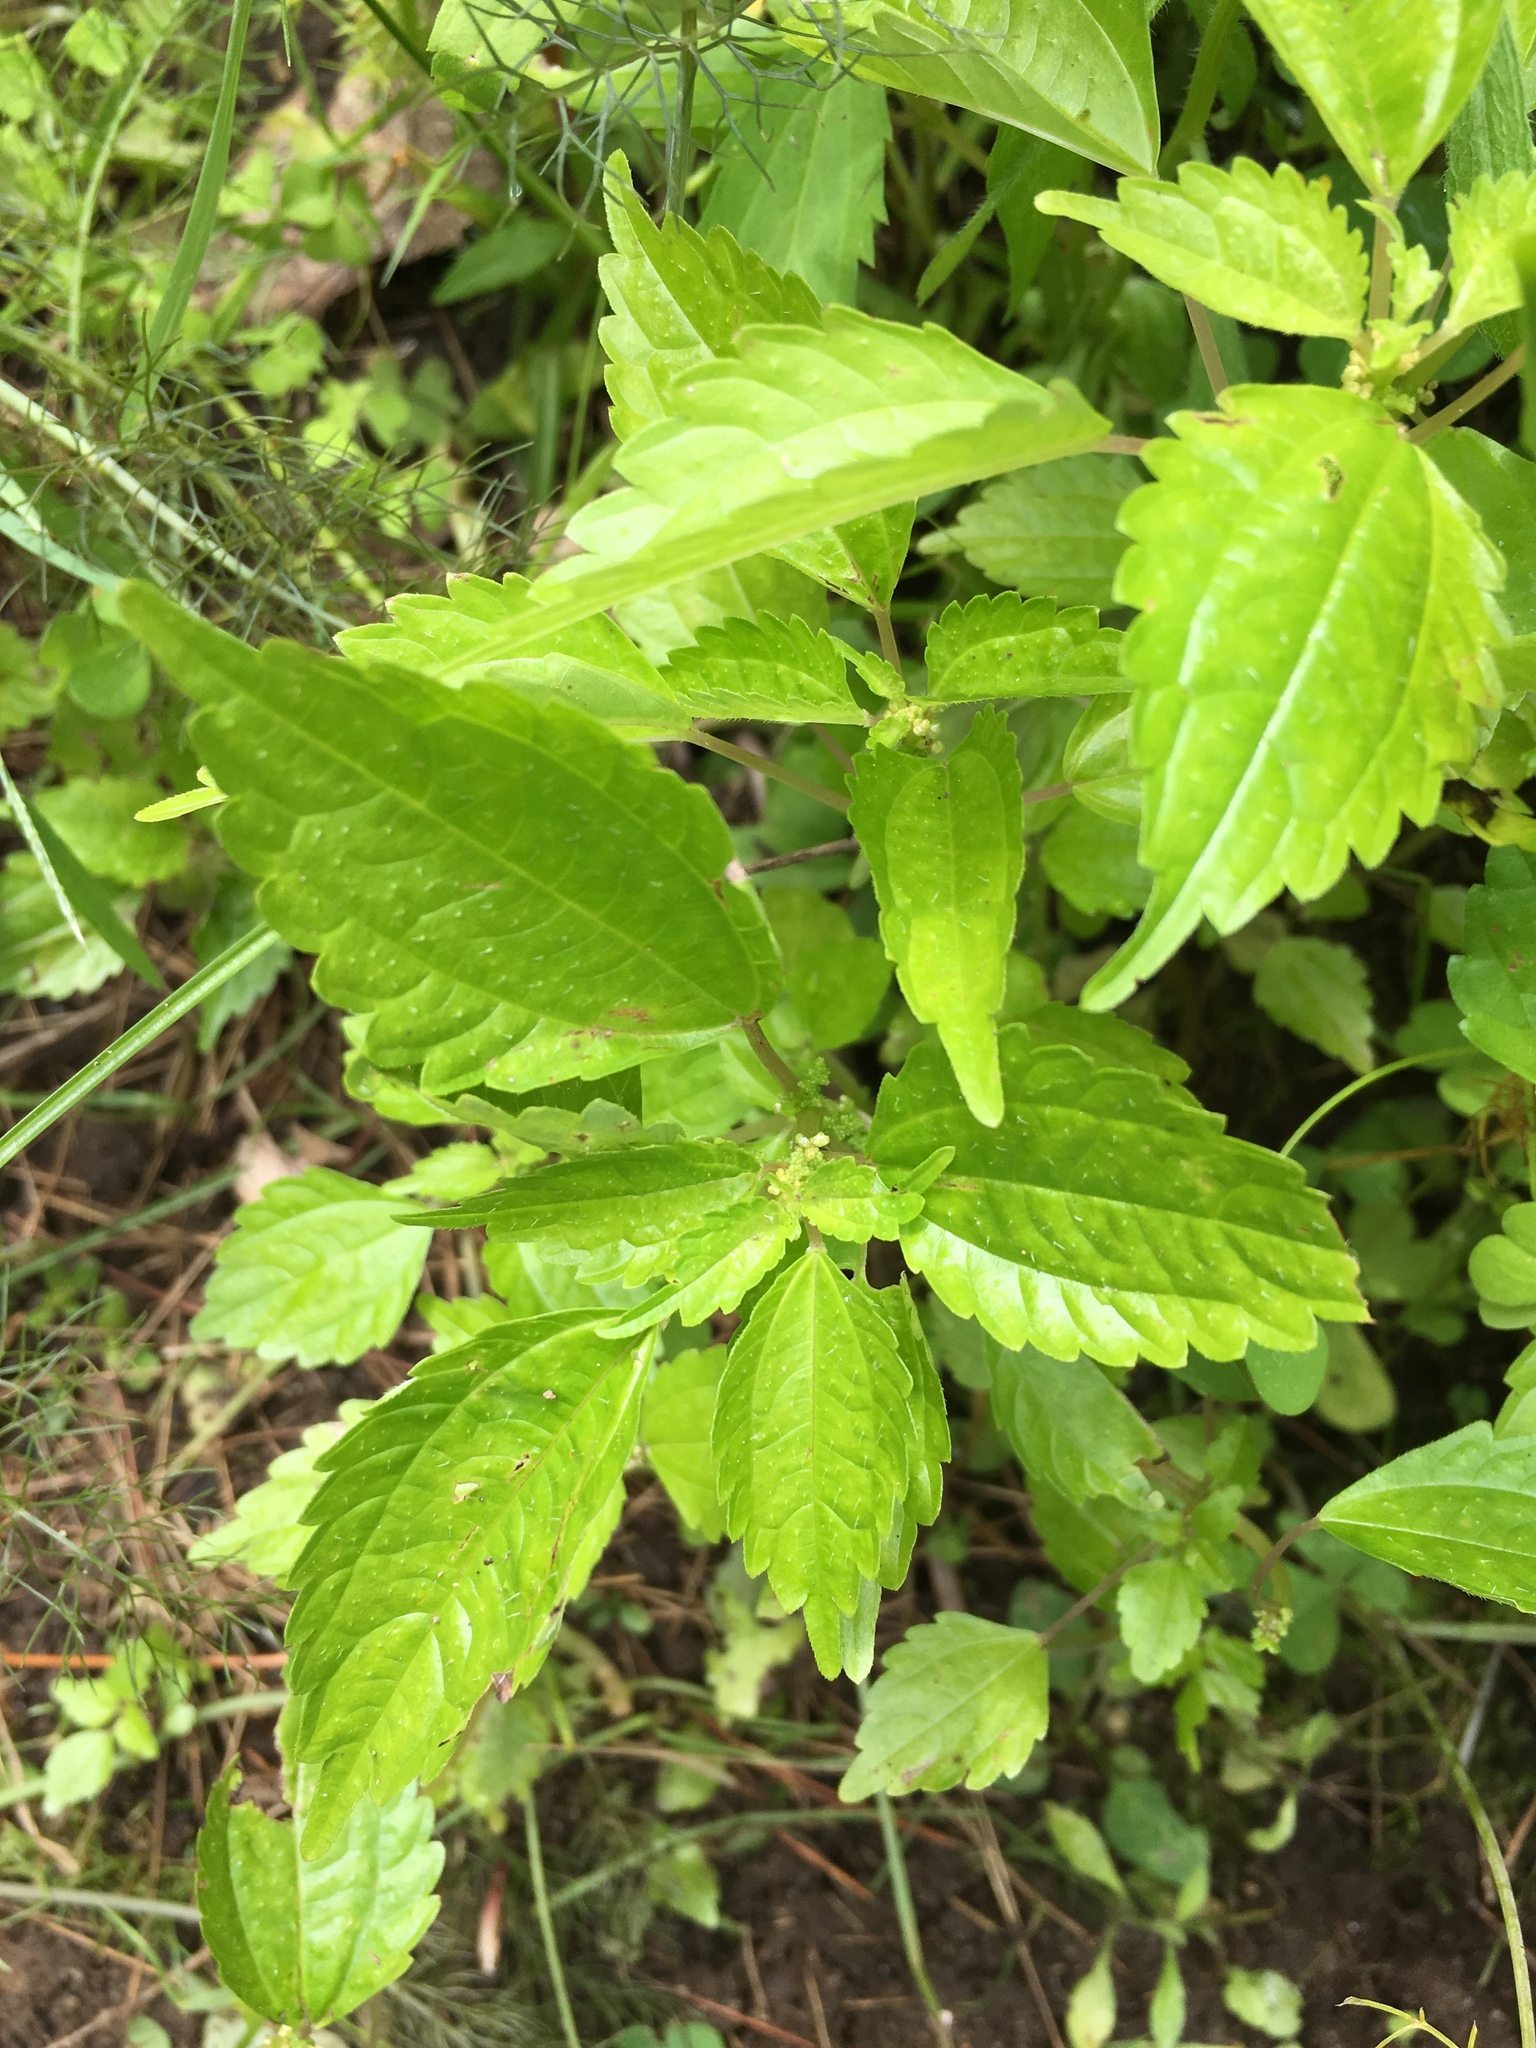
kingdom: Plantae
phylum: Tracheophyta
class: Magnoliopsida
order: Rosales
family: Urticaceae
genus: Pilea
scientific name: Pilea pumila
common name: Clearweed
